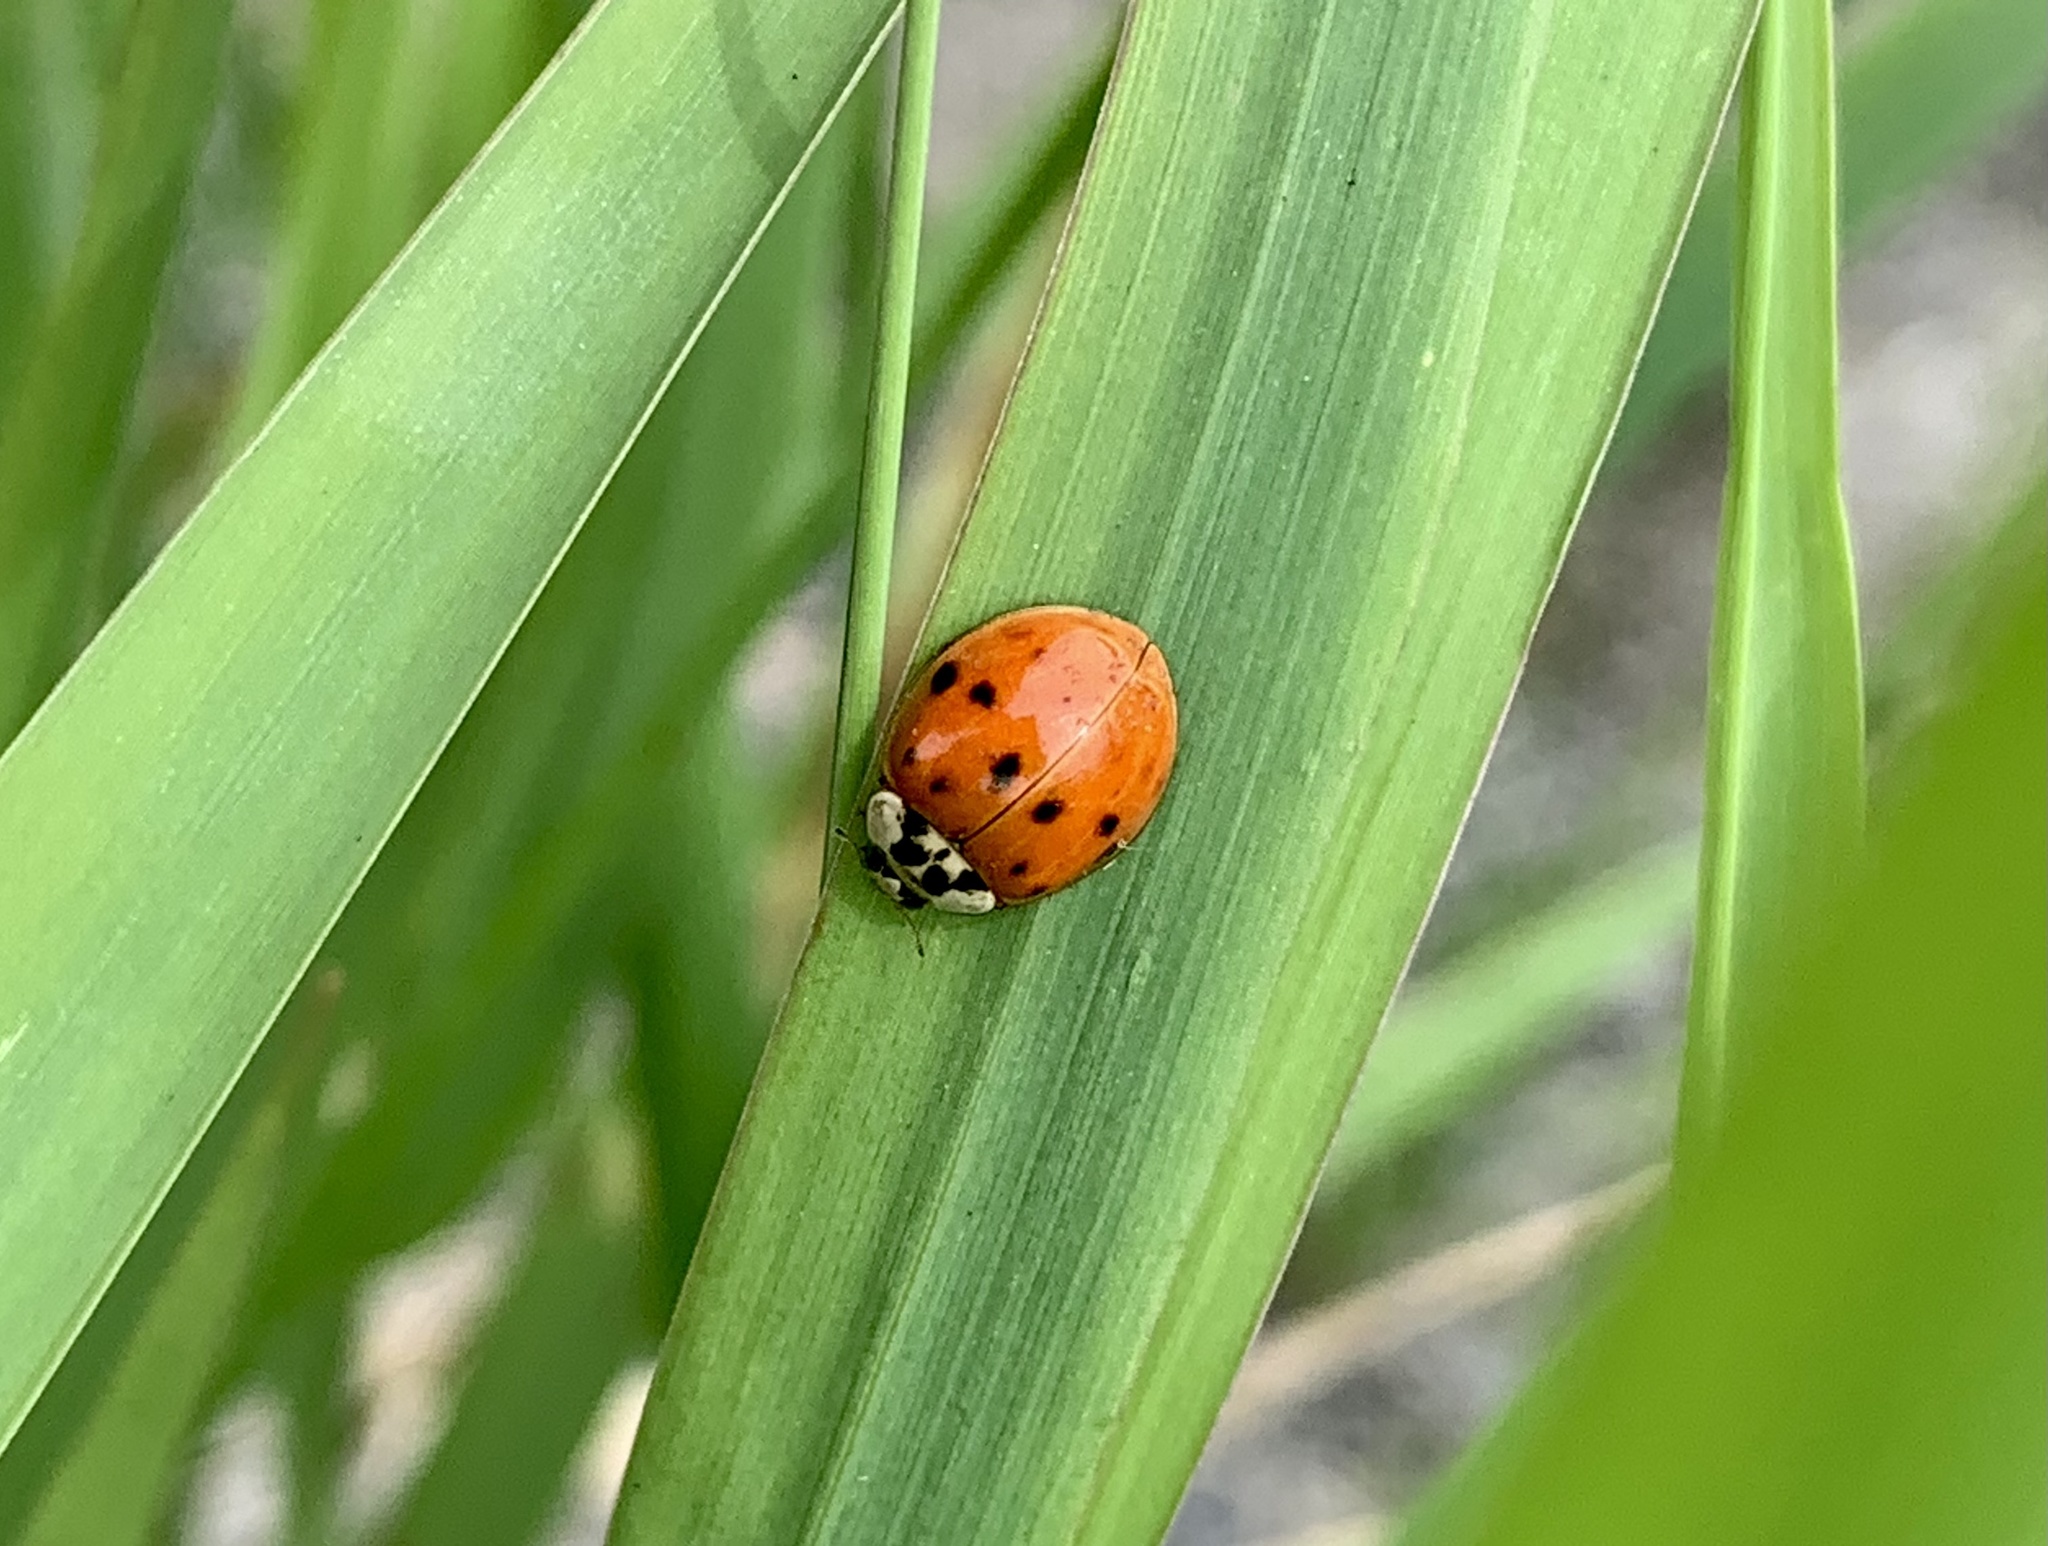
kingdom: Animalia
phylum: Arthropoda
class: Insecta
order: Coleoptera
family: Coccinellidae
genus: Harmonia
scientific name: Harmonia axyridis
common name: Harlequin ladybird
